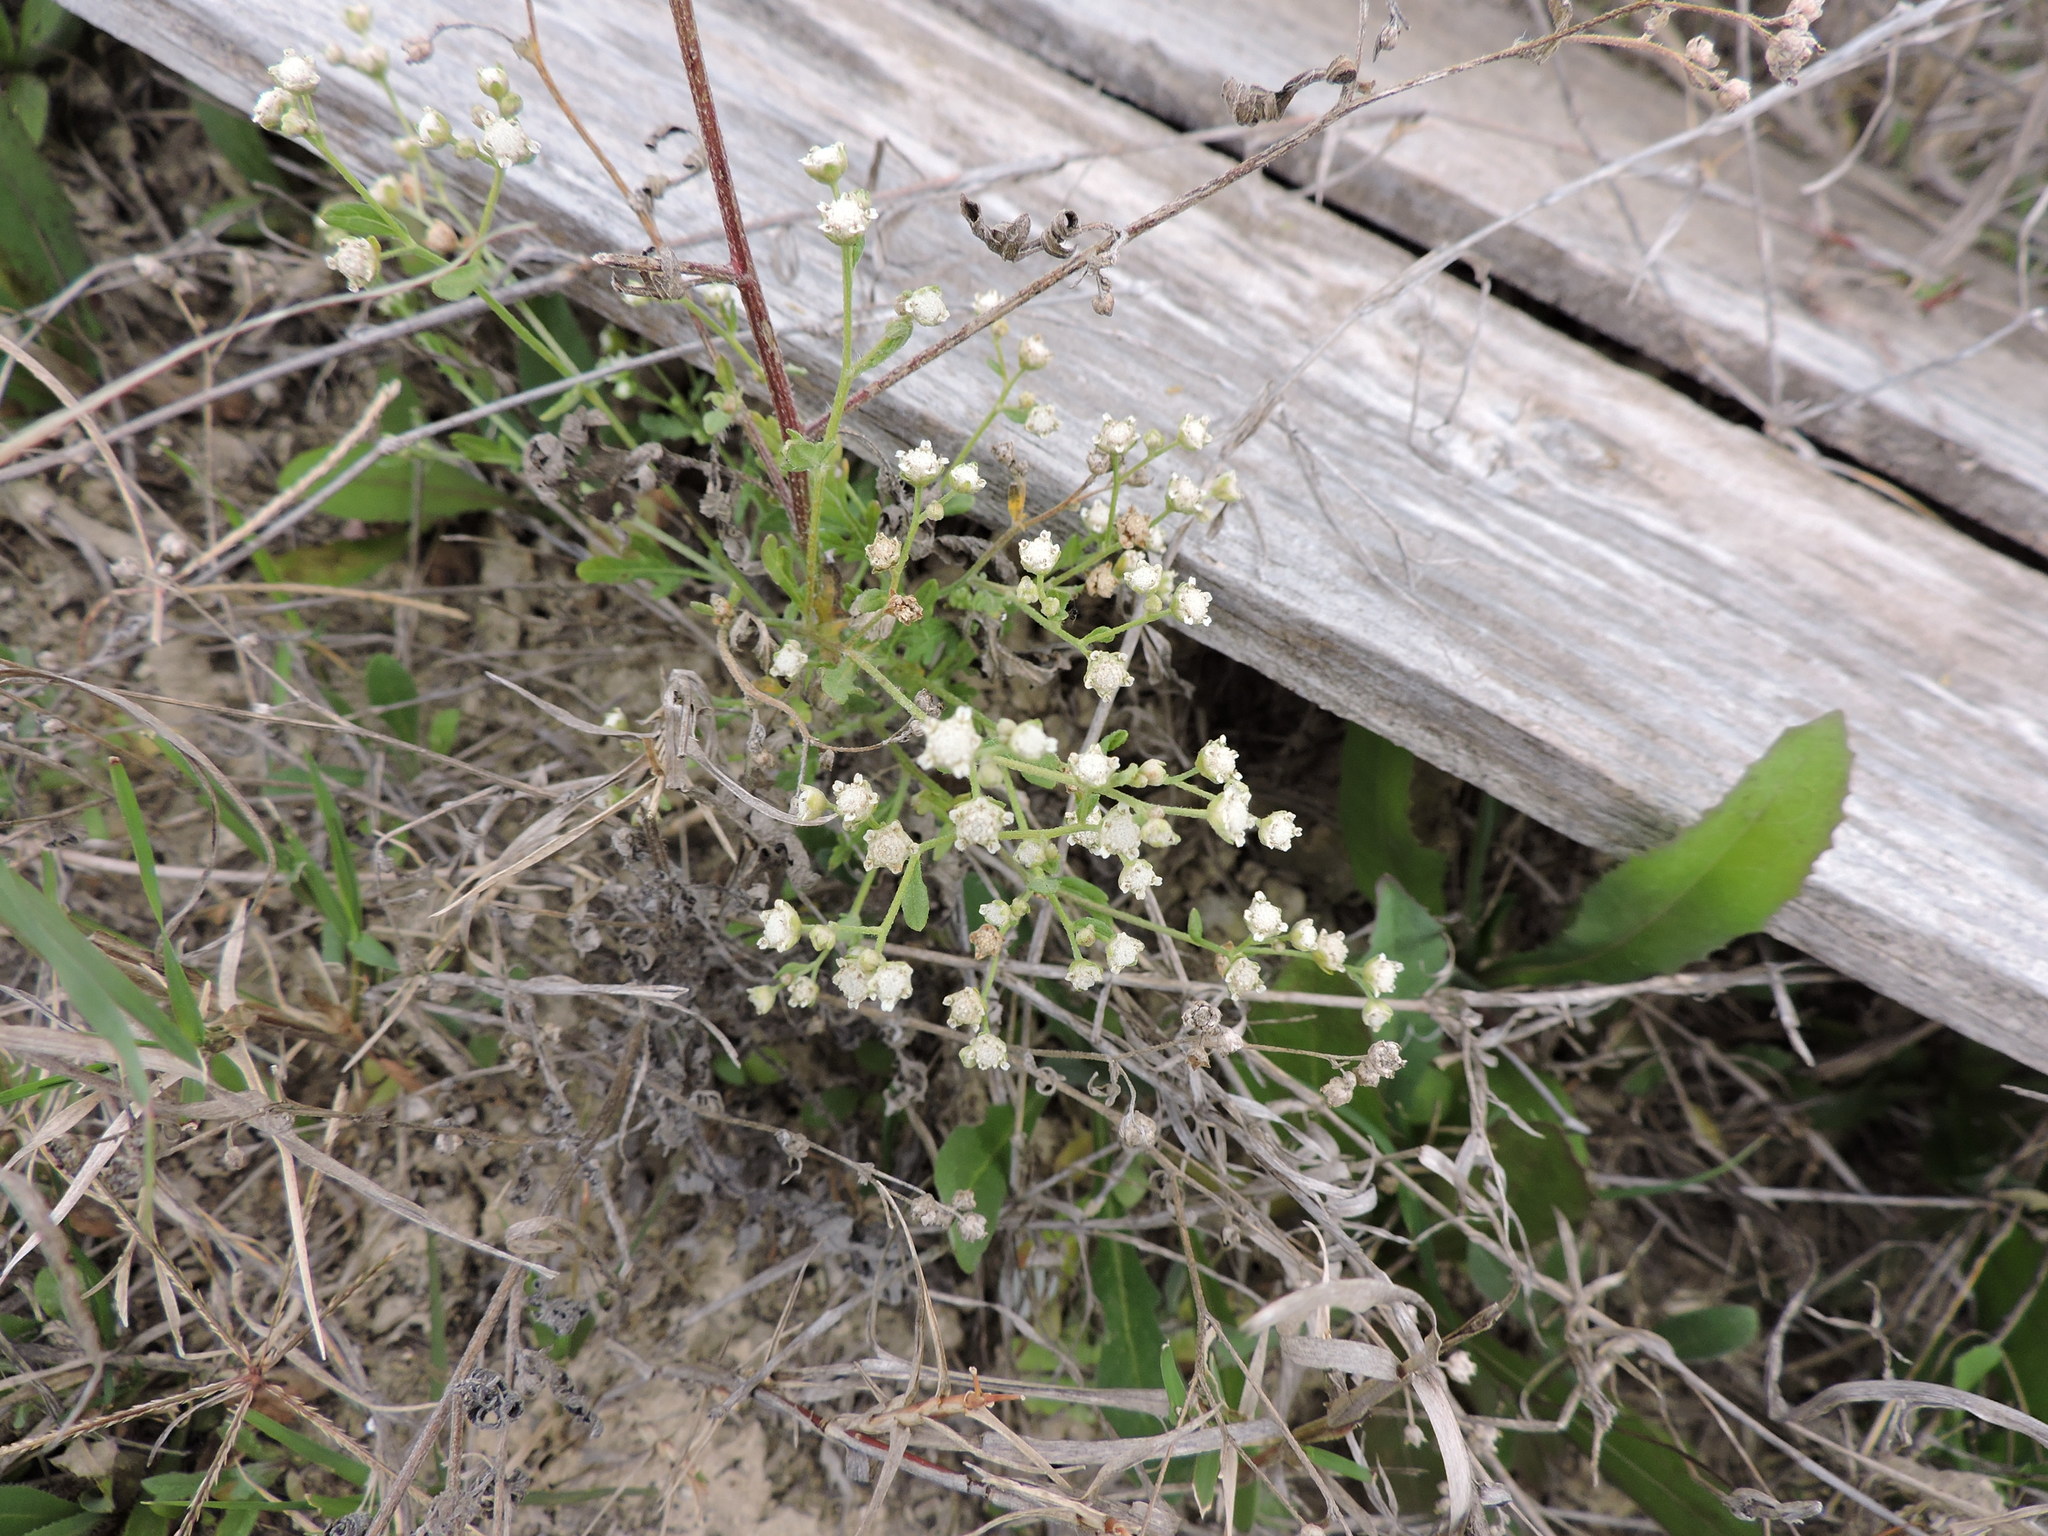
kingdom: Plantae
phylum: Tracheophyta
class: Magnoliopsida
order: Asterales
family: Asteraceae
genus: Parthenium
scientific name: Parthenium hysterophorus
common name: Santa maria feverfew
